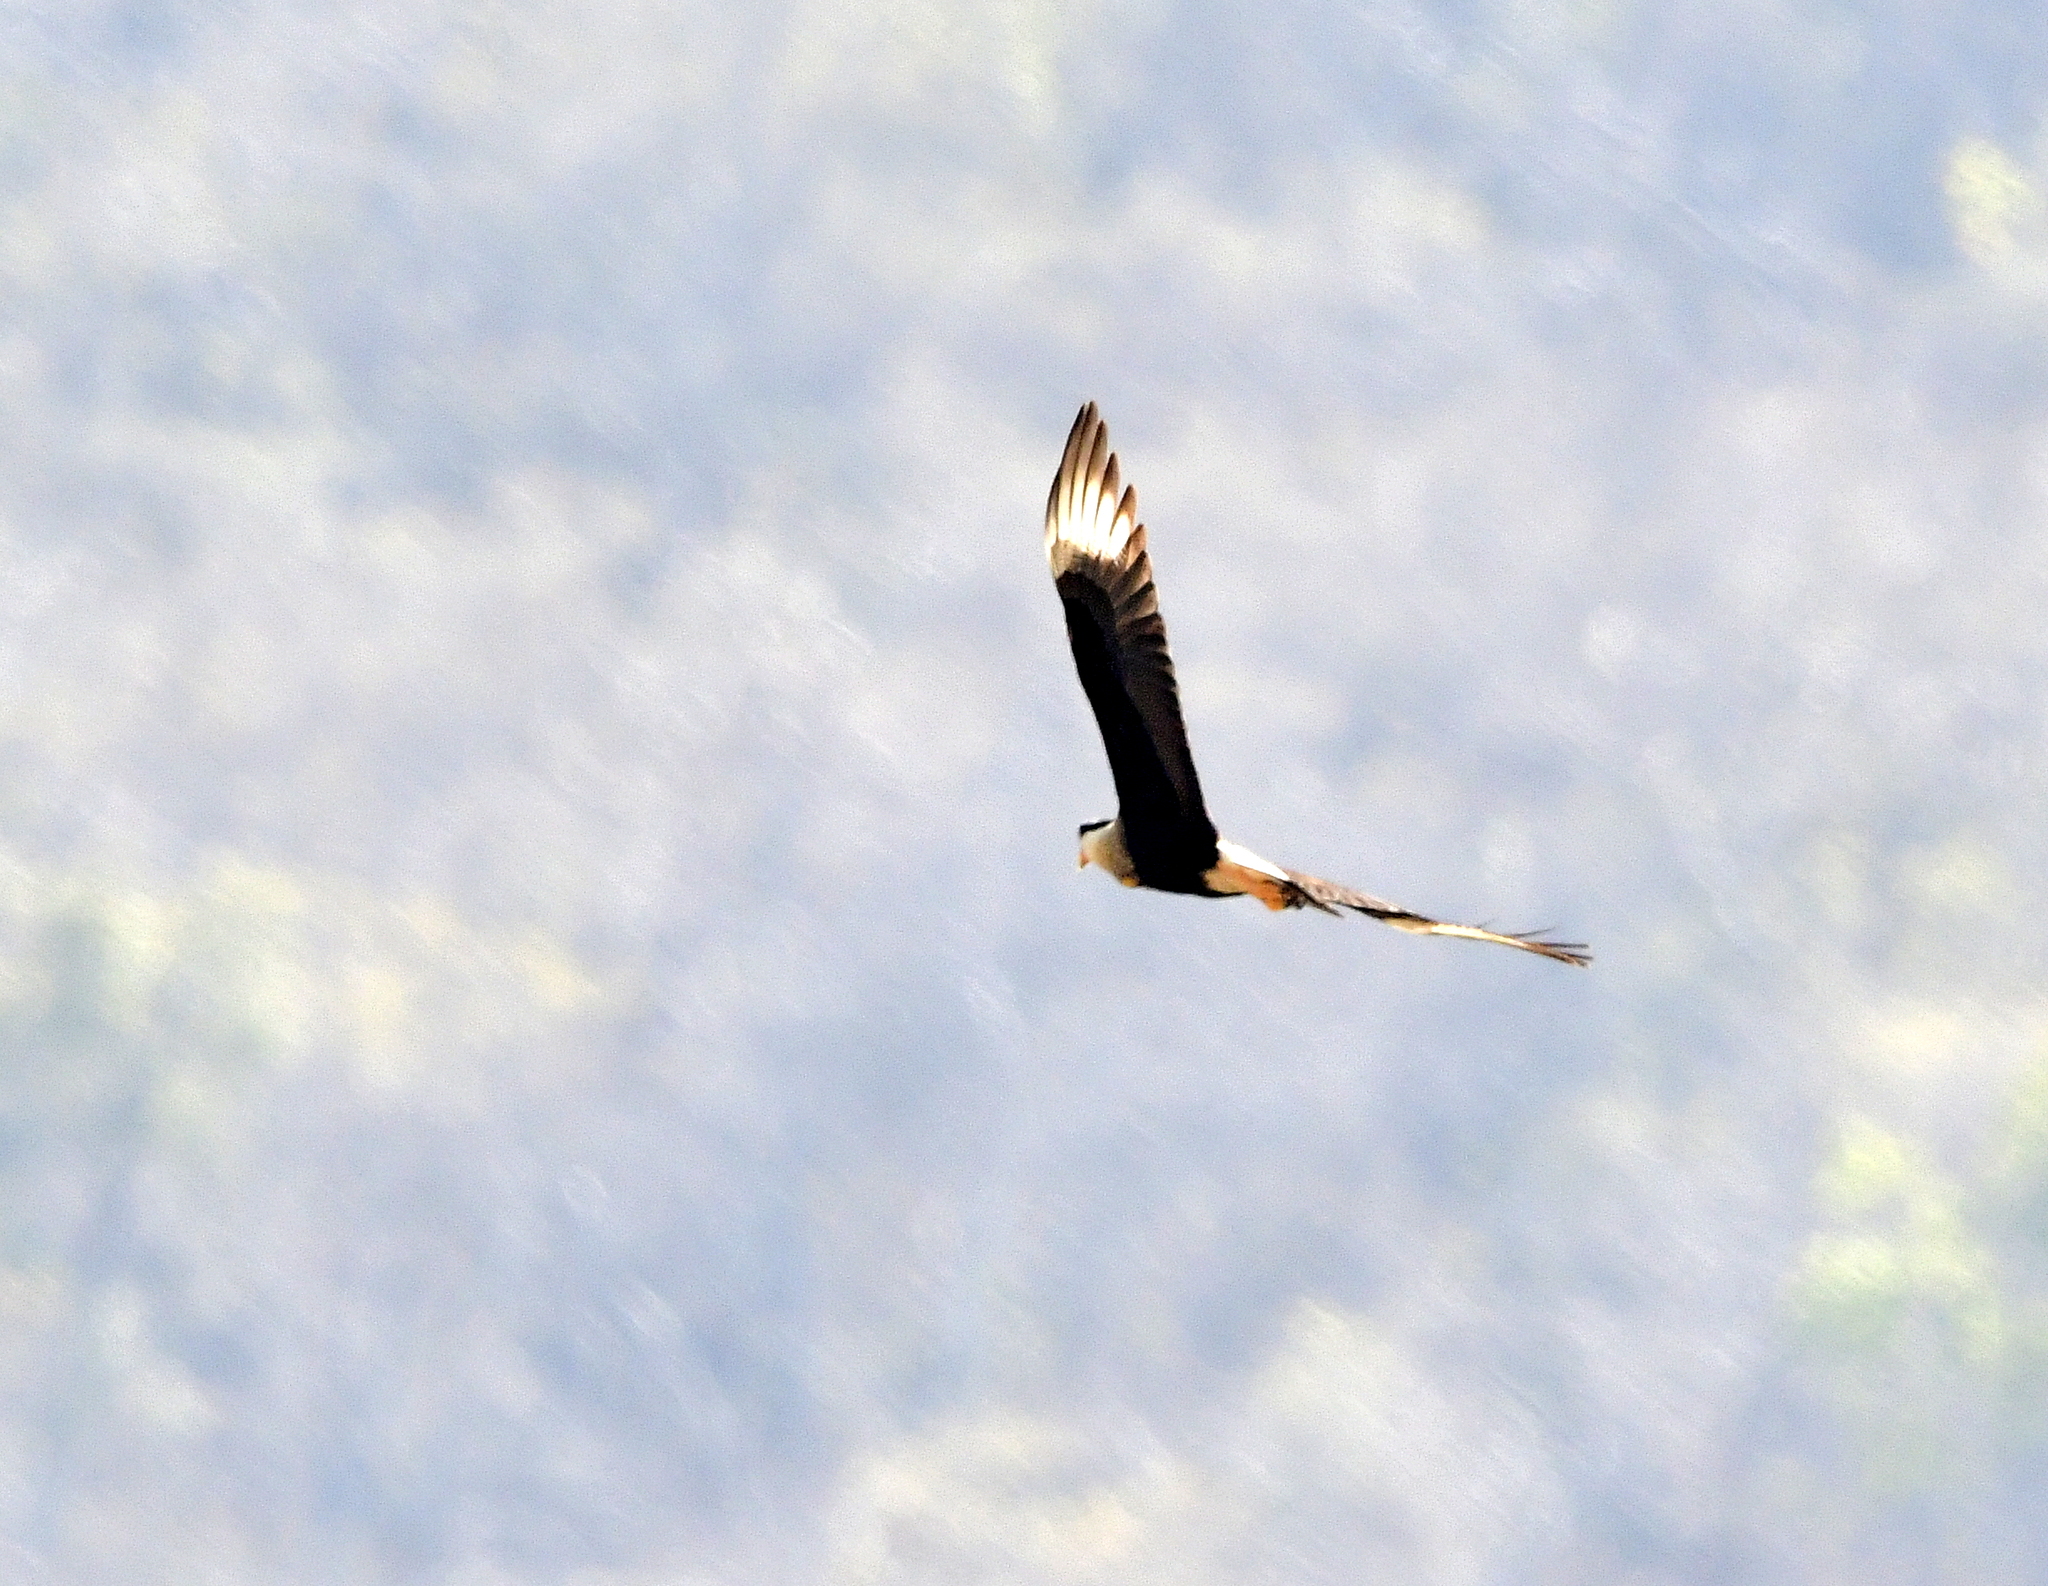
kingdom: Animalia
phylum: Chordata
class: Aves
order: Falconiformes
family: Falconidae
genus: Caracara
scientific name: Caracara plancus
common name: Southern caracara
